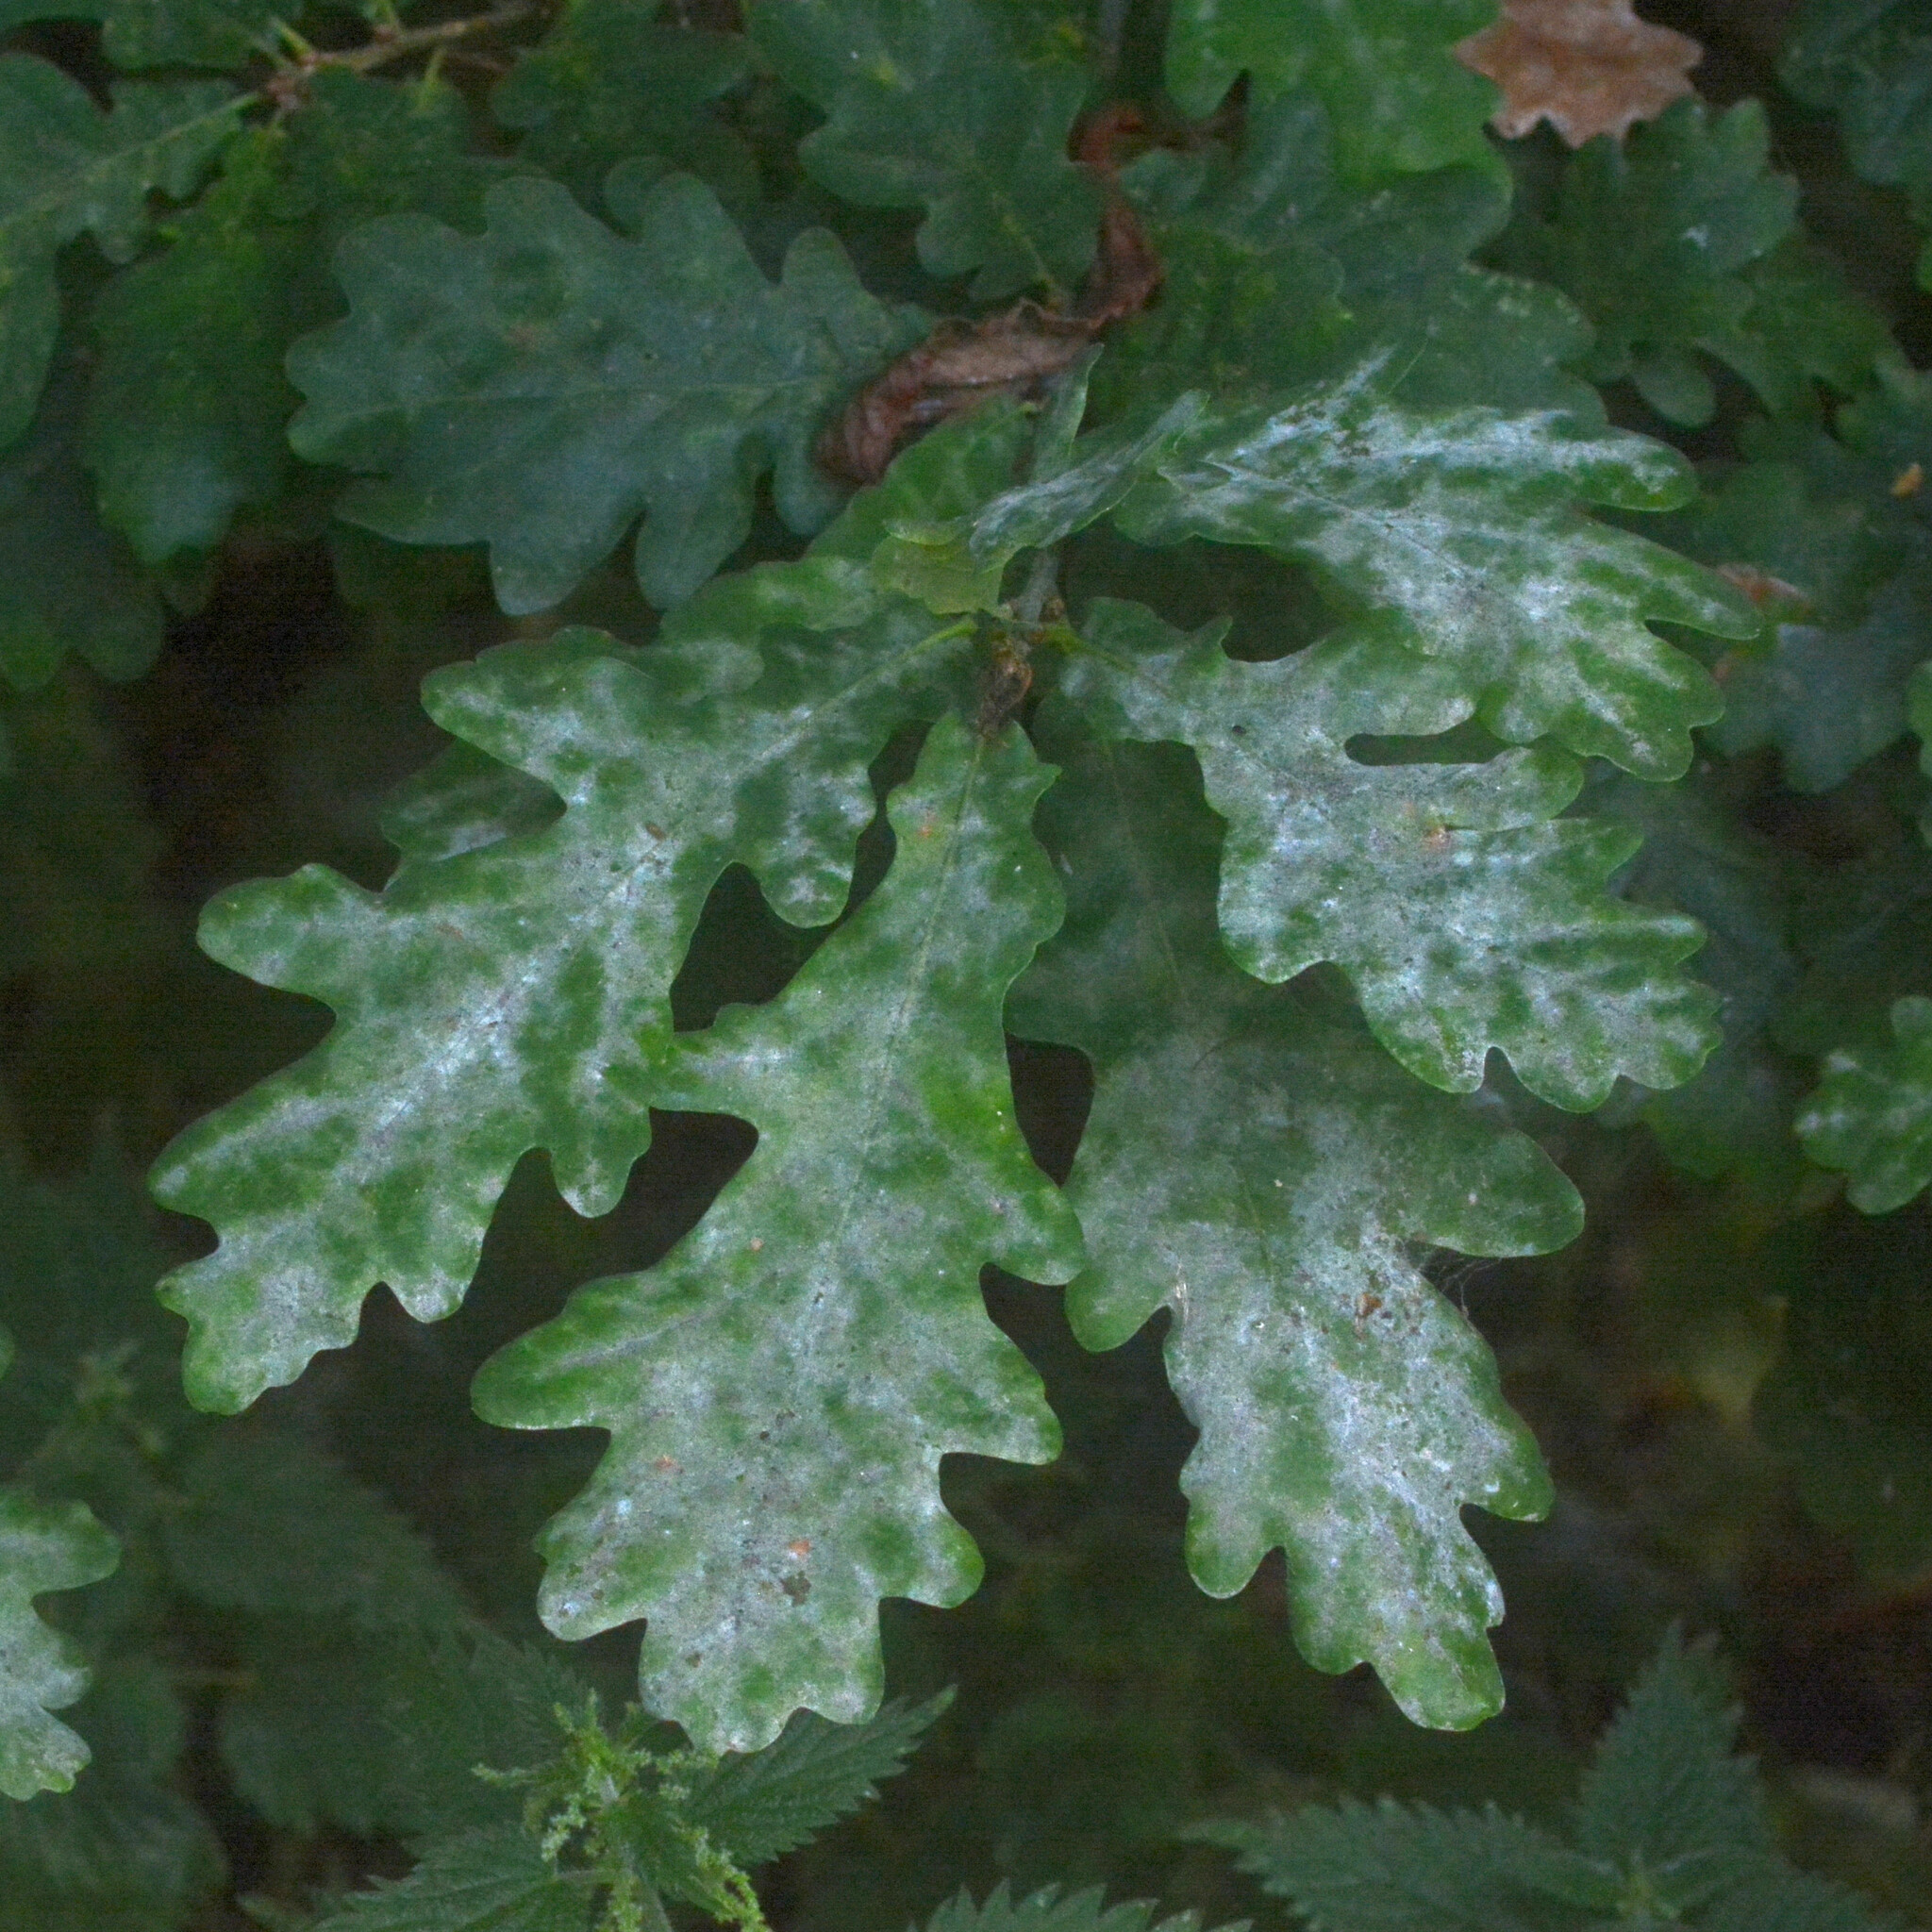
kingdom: Fungi
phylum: Ascomycota
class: Leotiomycetes
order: Helotiales
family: Erysiphaceae
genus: Erysiphe
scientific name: Erysiphe alphitoides
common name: Oak mildew
